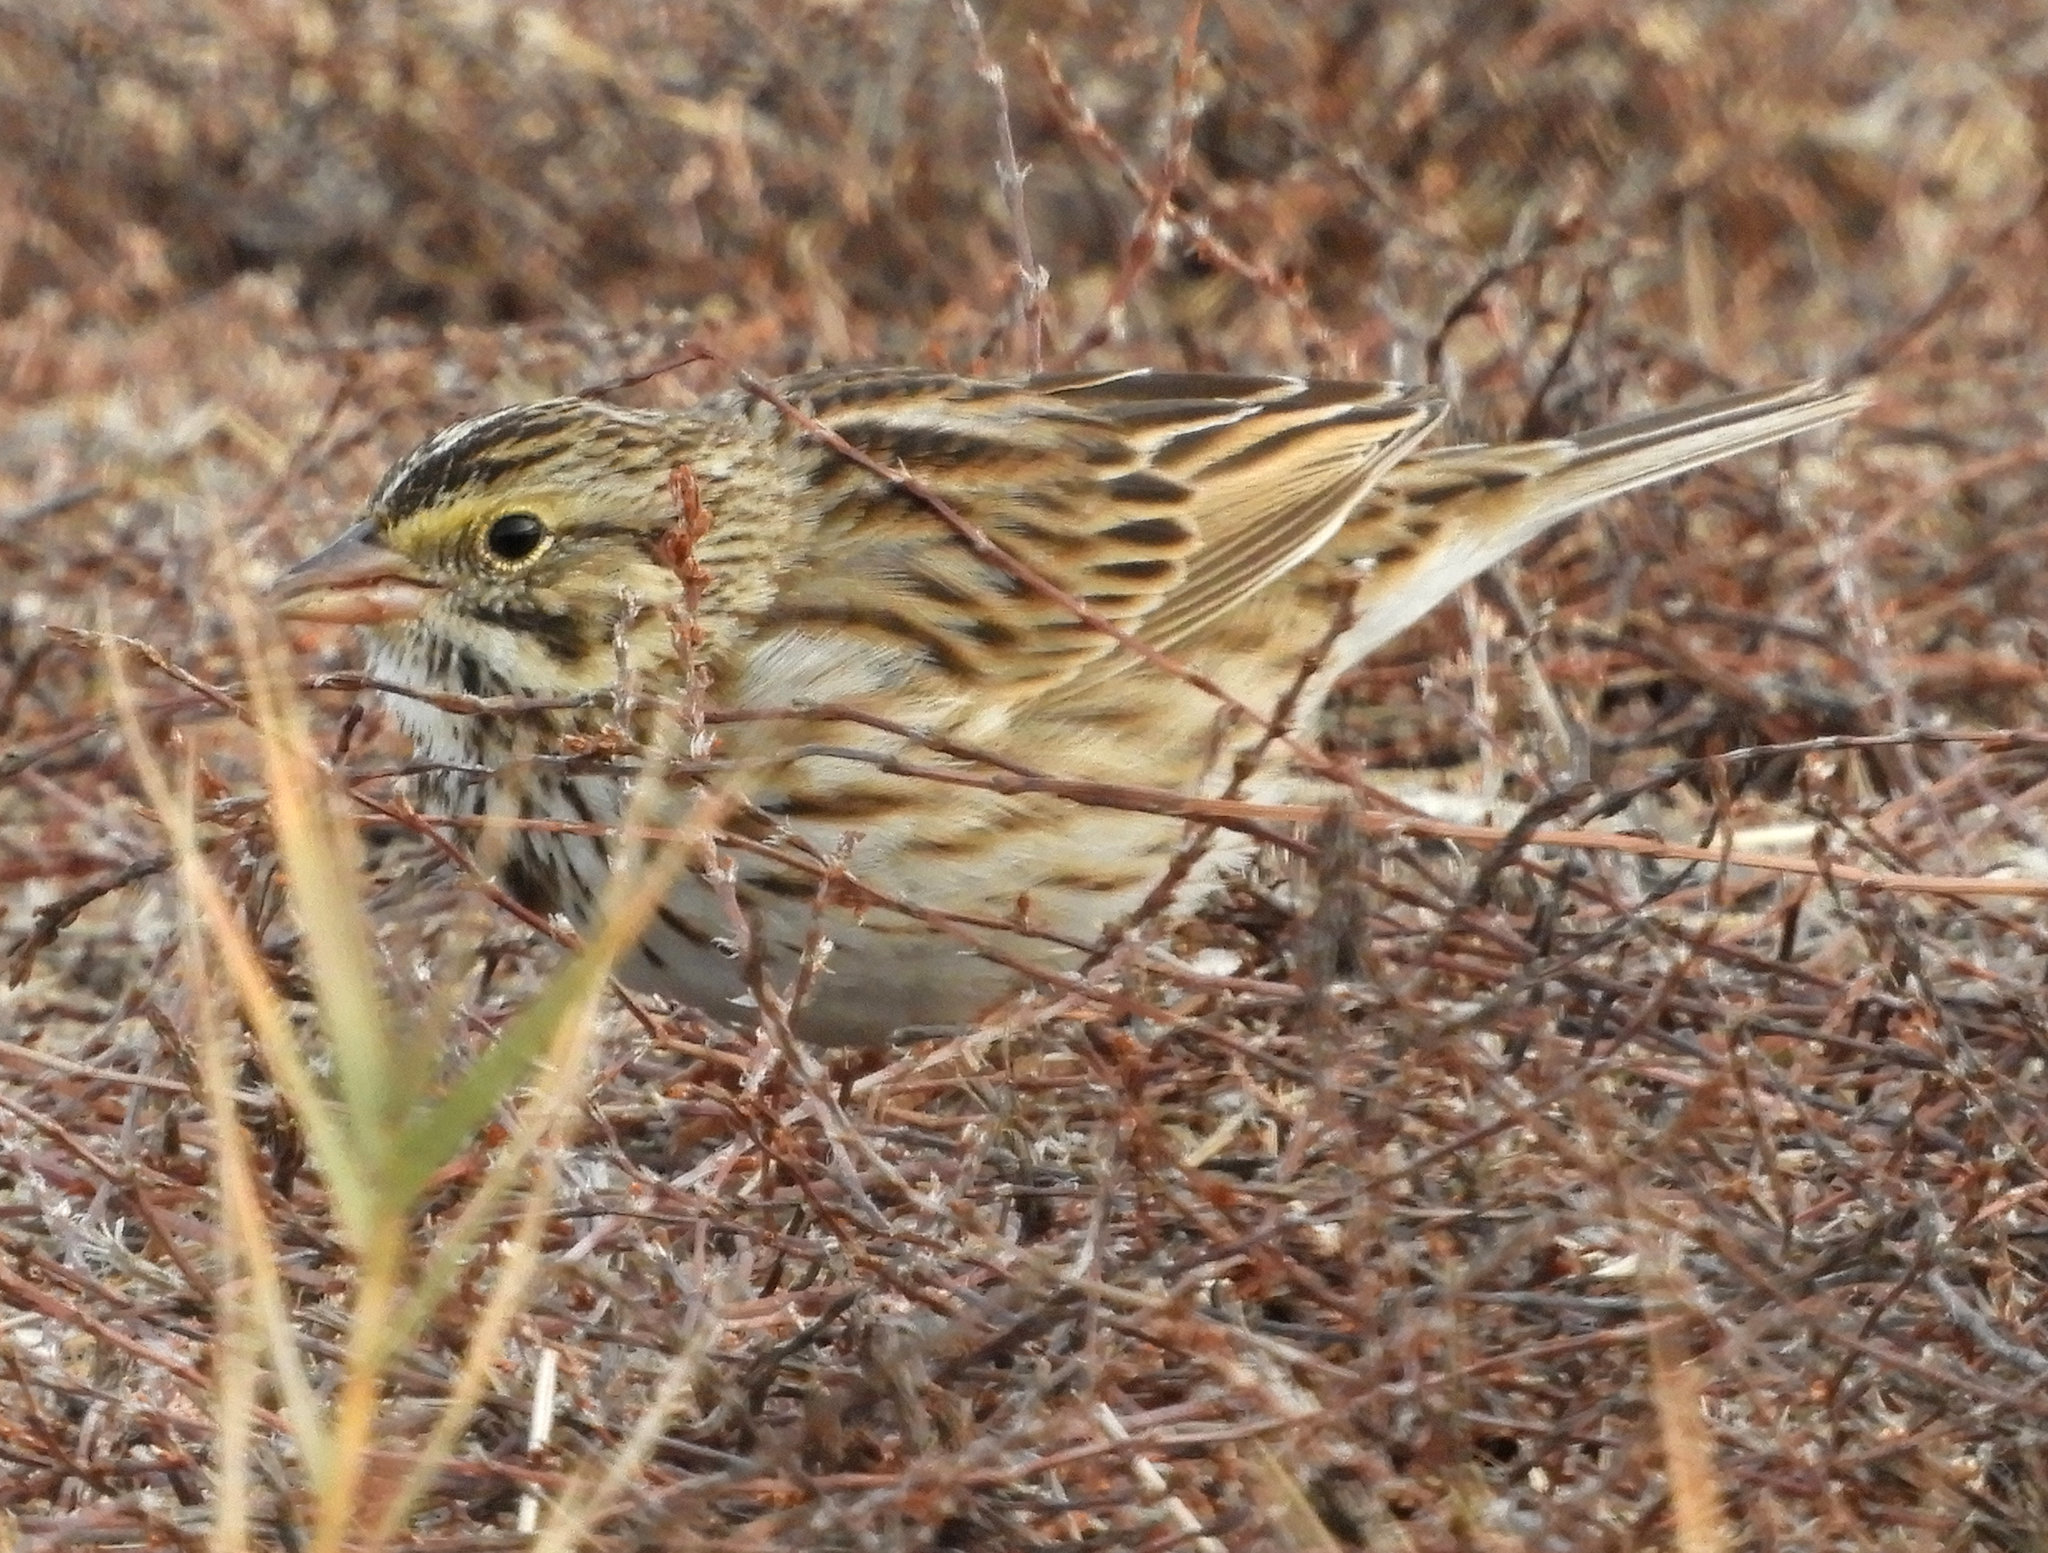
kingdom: Animalia
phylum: Chordata
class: Aves
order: Passeriformes
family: Passerellidae
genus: Passerculus
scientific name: Passerculus sandwichensis
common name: Savannah sparrow
